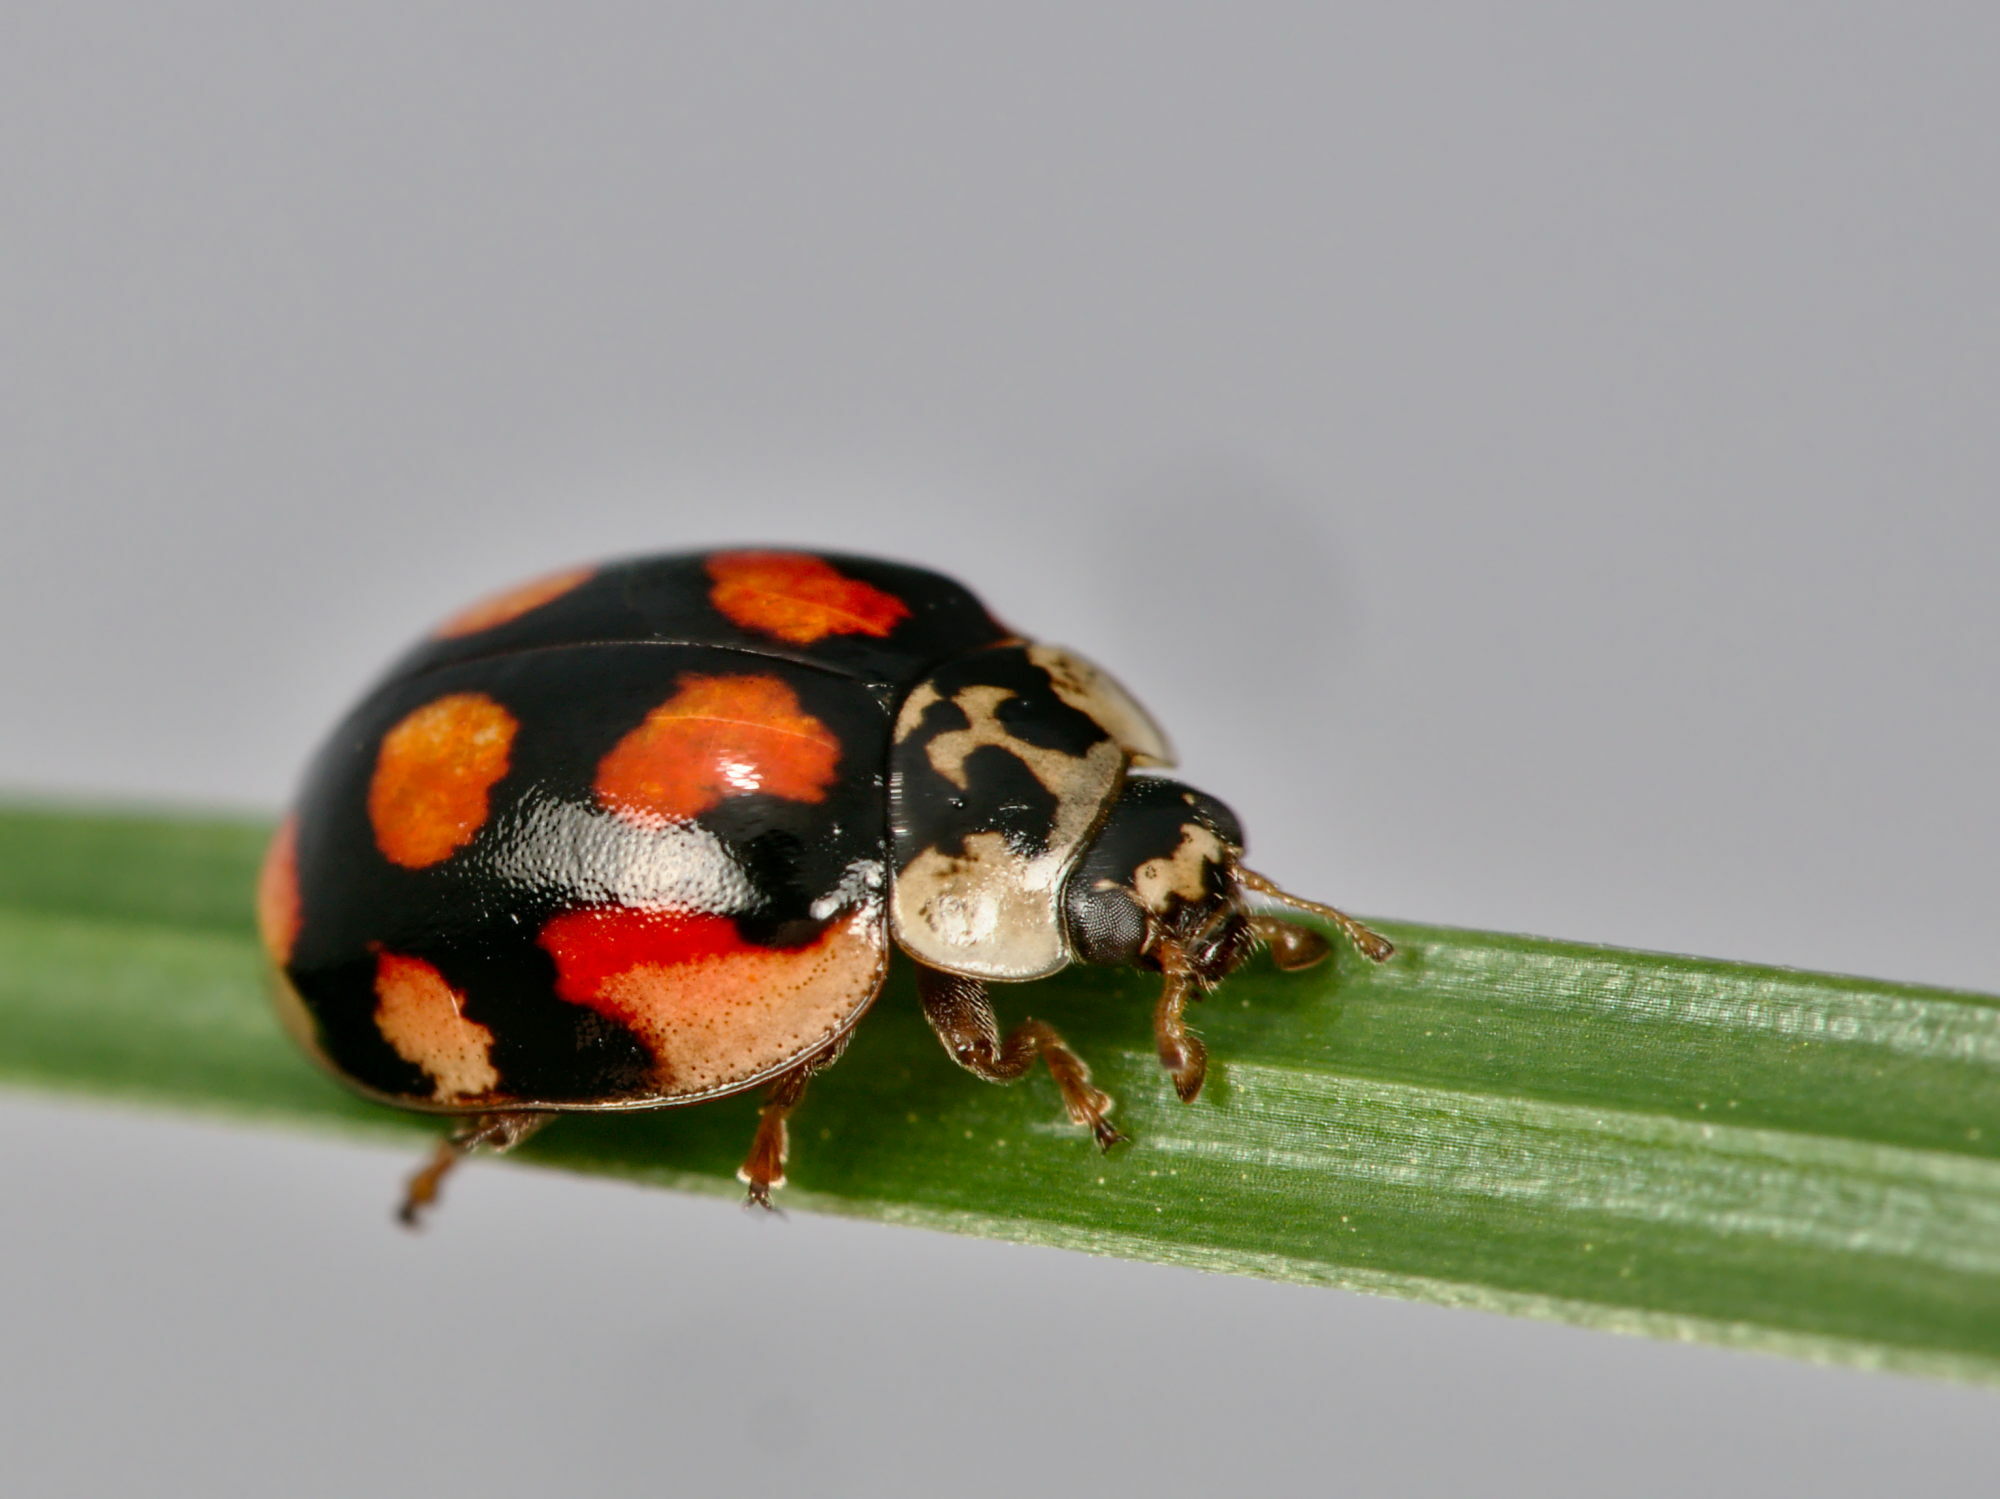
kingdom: Animalia
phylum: Arthropoda
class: Insecta
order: Coleoptera
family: Coccinellidae
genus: Adalia
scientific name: Adalia decempunctata
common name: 10-spot ladybird
